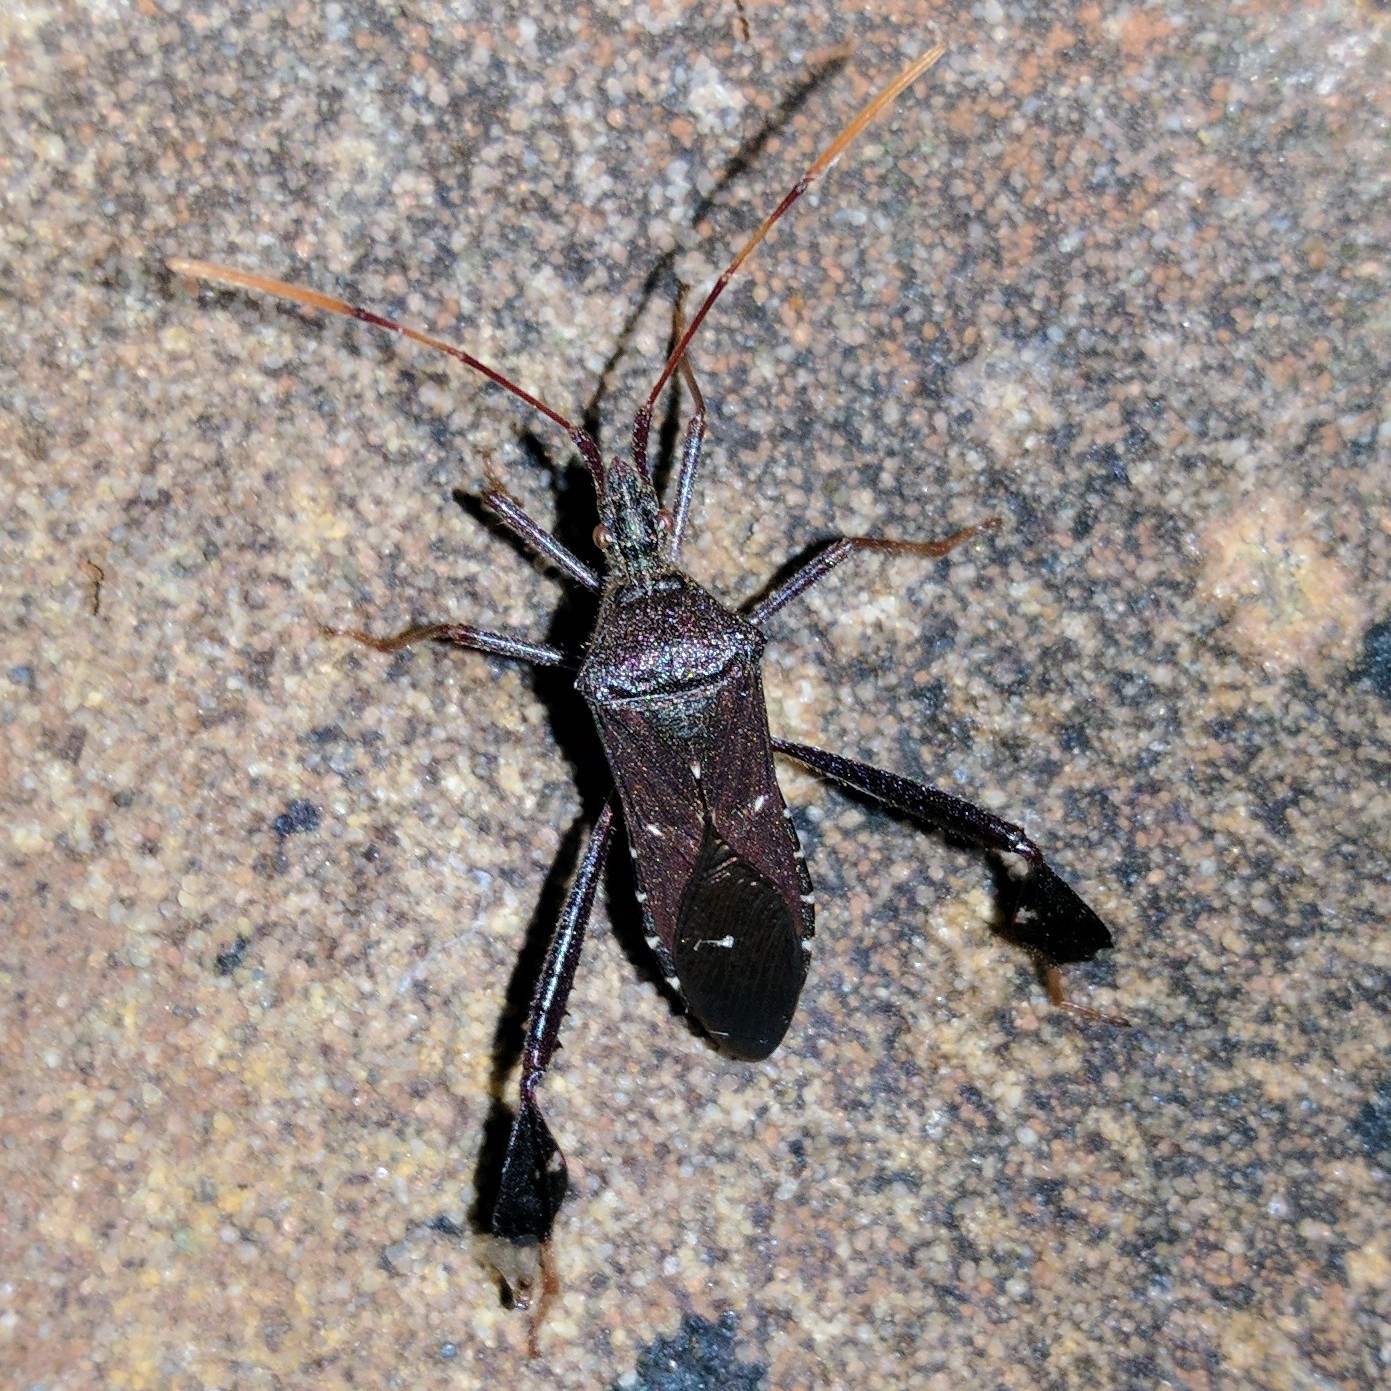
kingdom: Animalia
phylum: Arthropoda
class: Insecta
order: Hemiptera
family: Coreidae
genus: Leptoglossus
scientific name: Leptoglossus oppositus
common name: Northern leaf-footed bug
